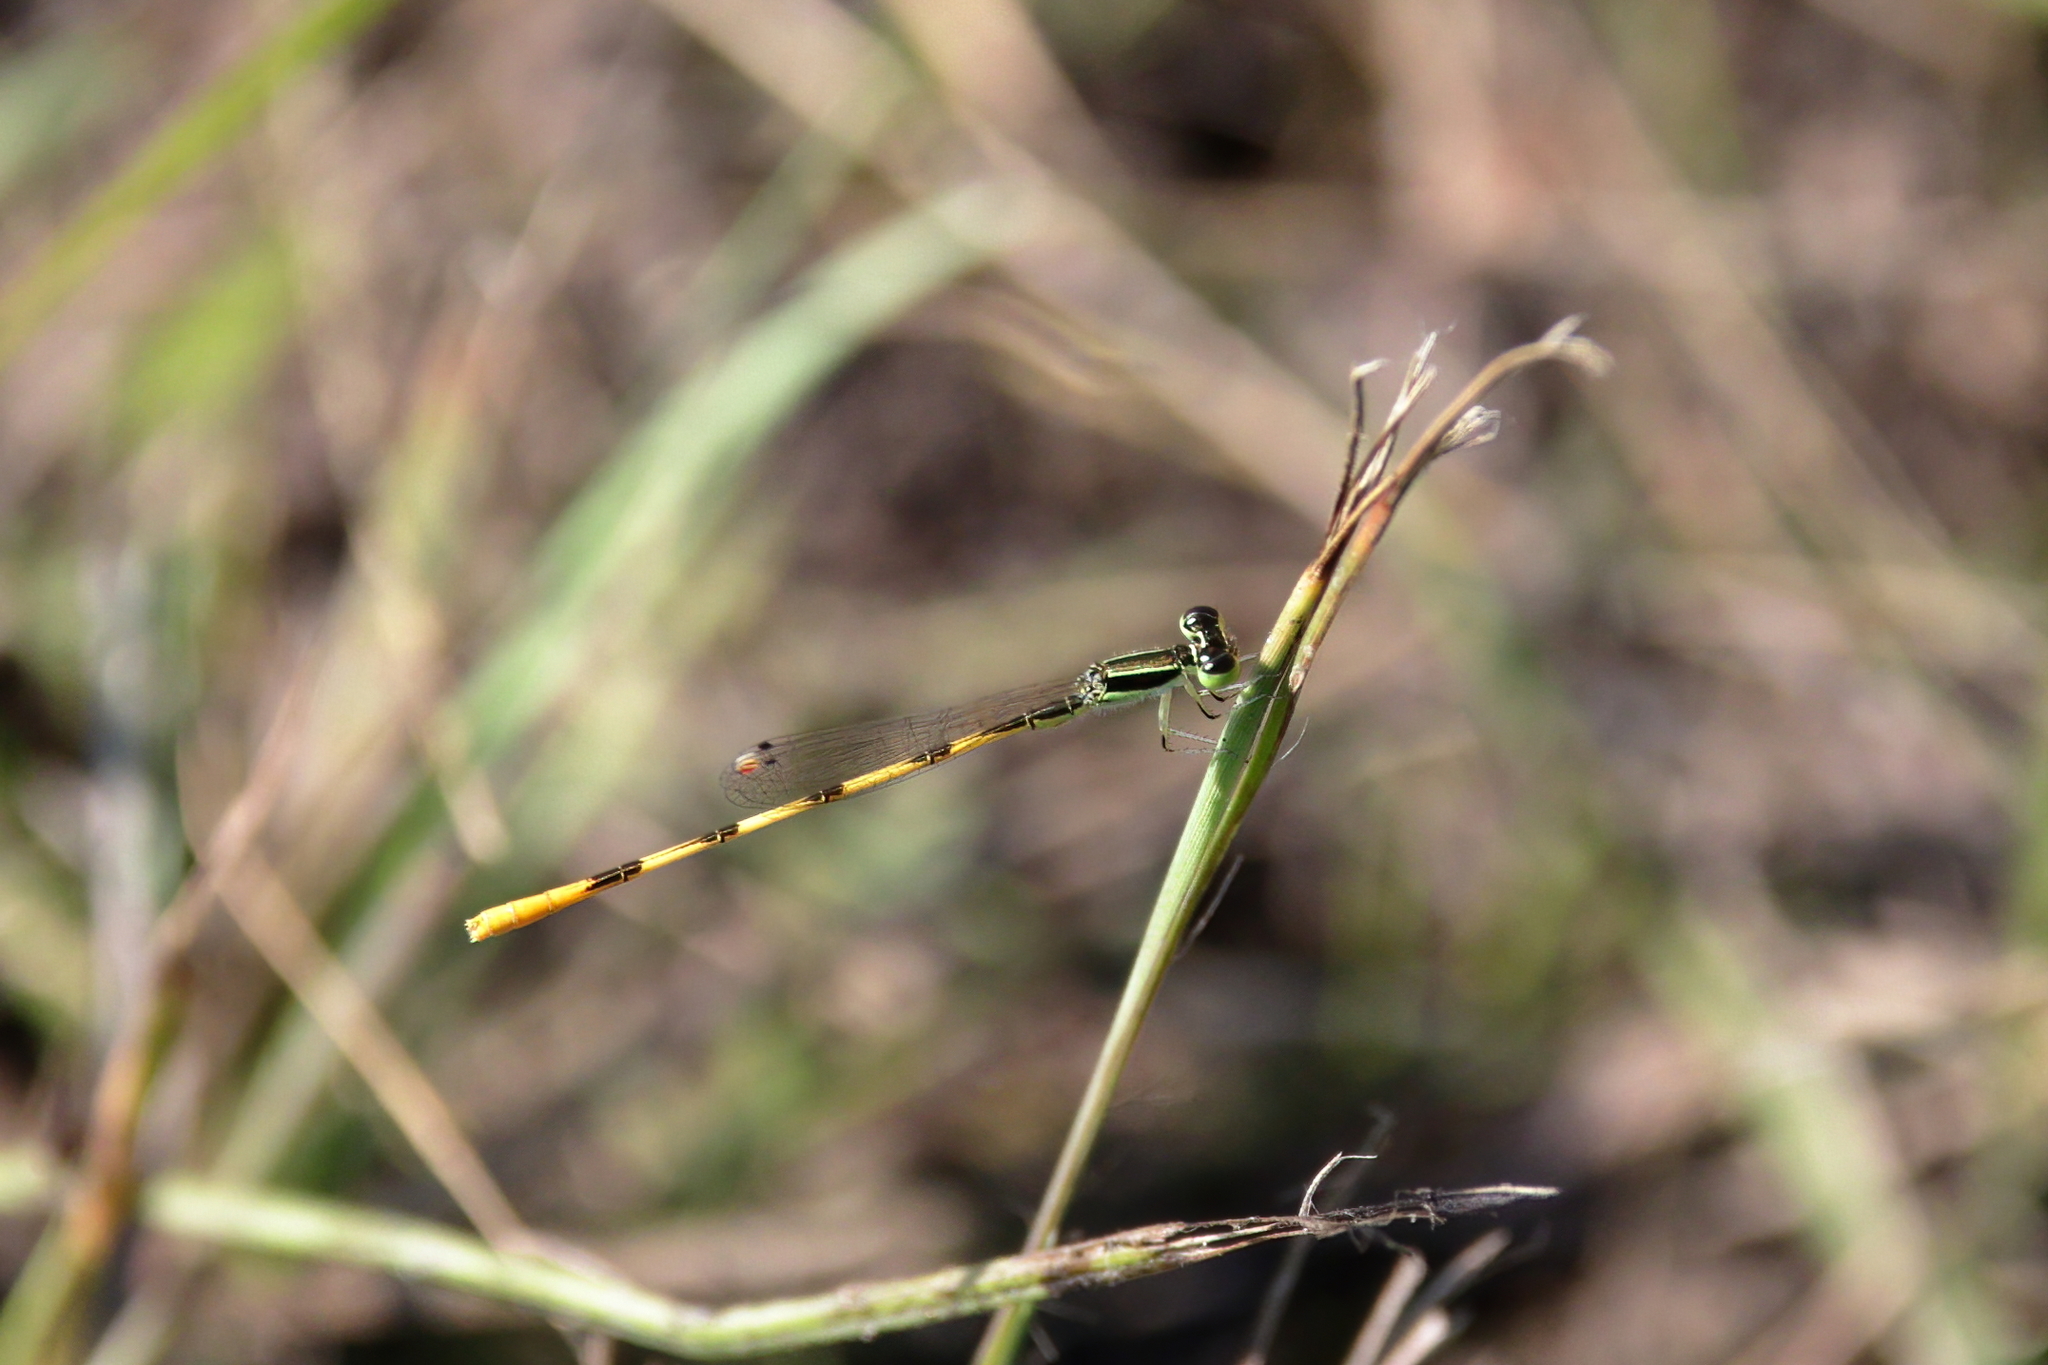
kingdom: Animalia
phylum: Arthropoda
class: Insecta
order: Odonata
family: Coenagrionidae
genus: Ischnura
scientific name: Ischnura hastata
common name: Citrine forktail
